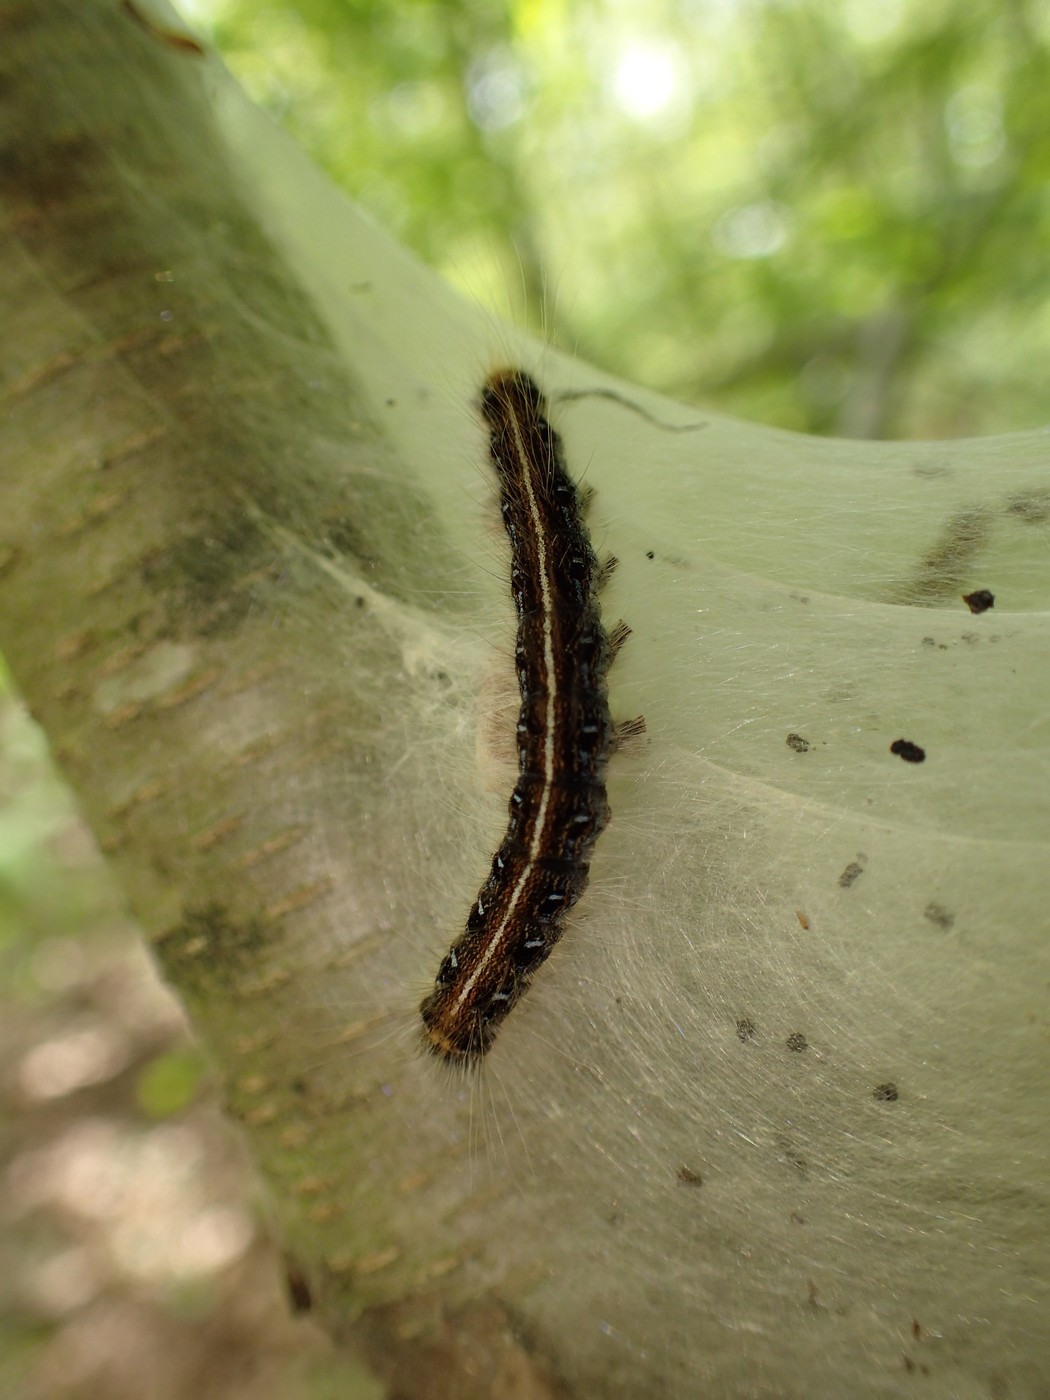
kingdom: Animalia
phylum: Arthropoda
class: Insecta
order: Lepidoptera
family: Lasiocampidae
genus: Malacosoma
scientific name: Malacosoma americana
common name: Eastern tent caterpillar moth
